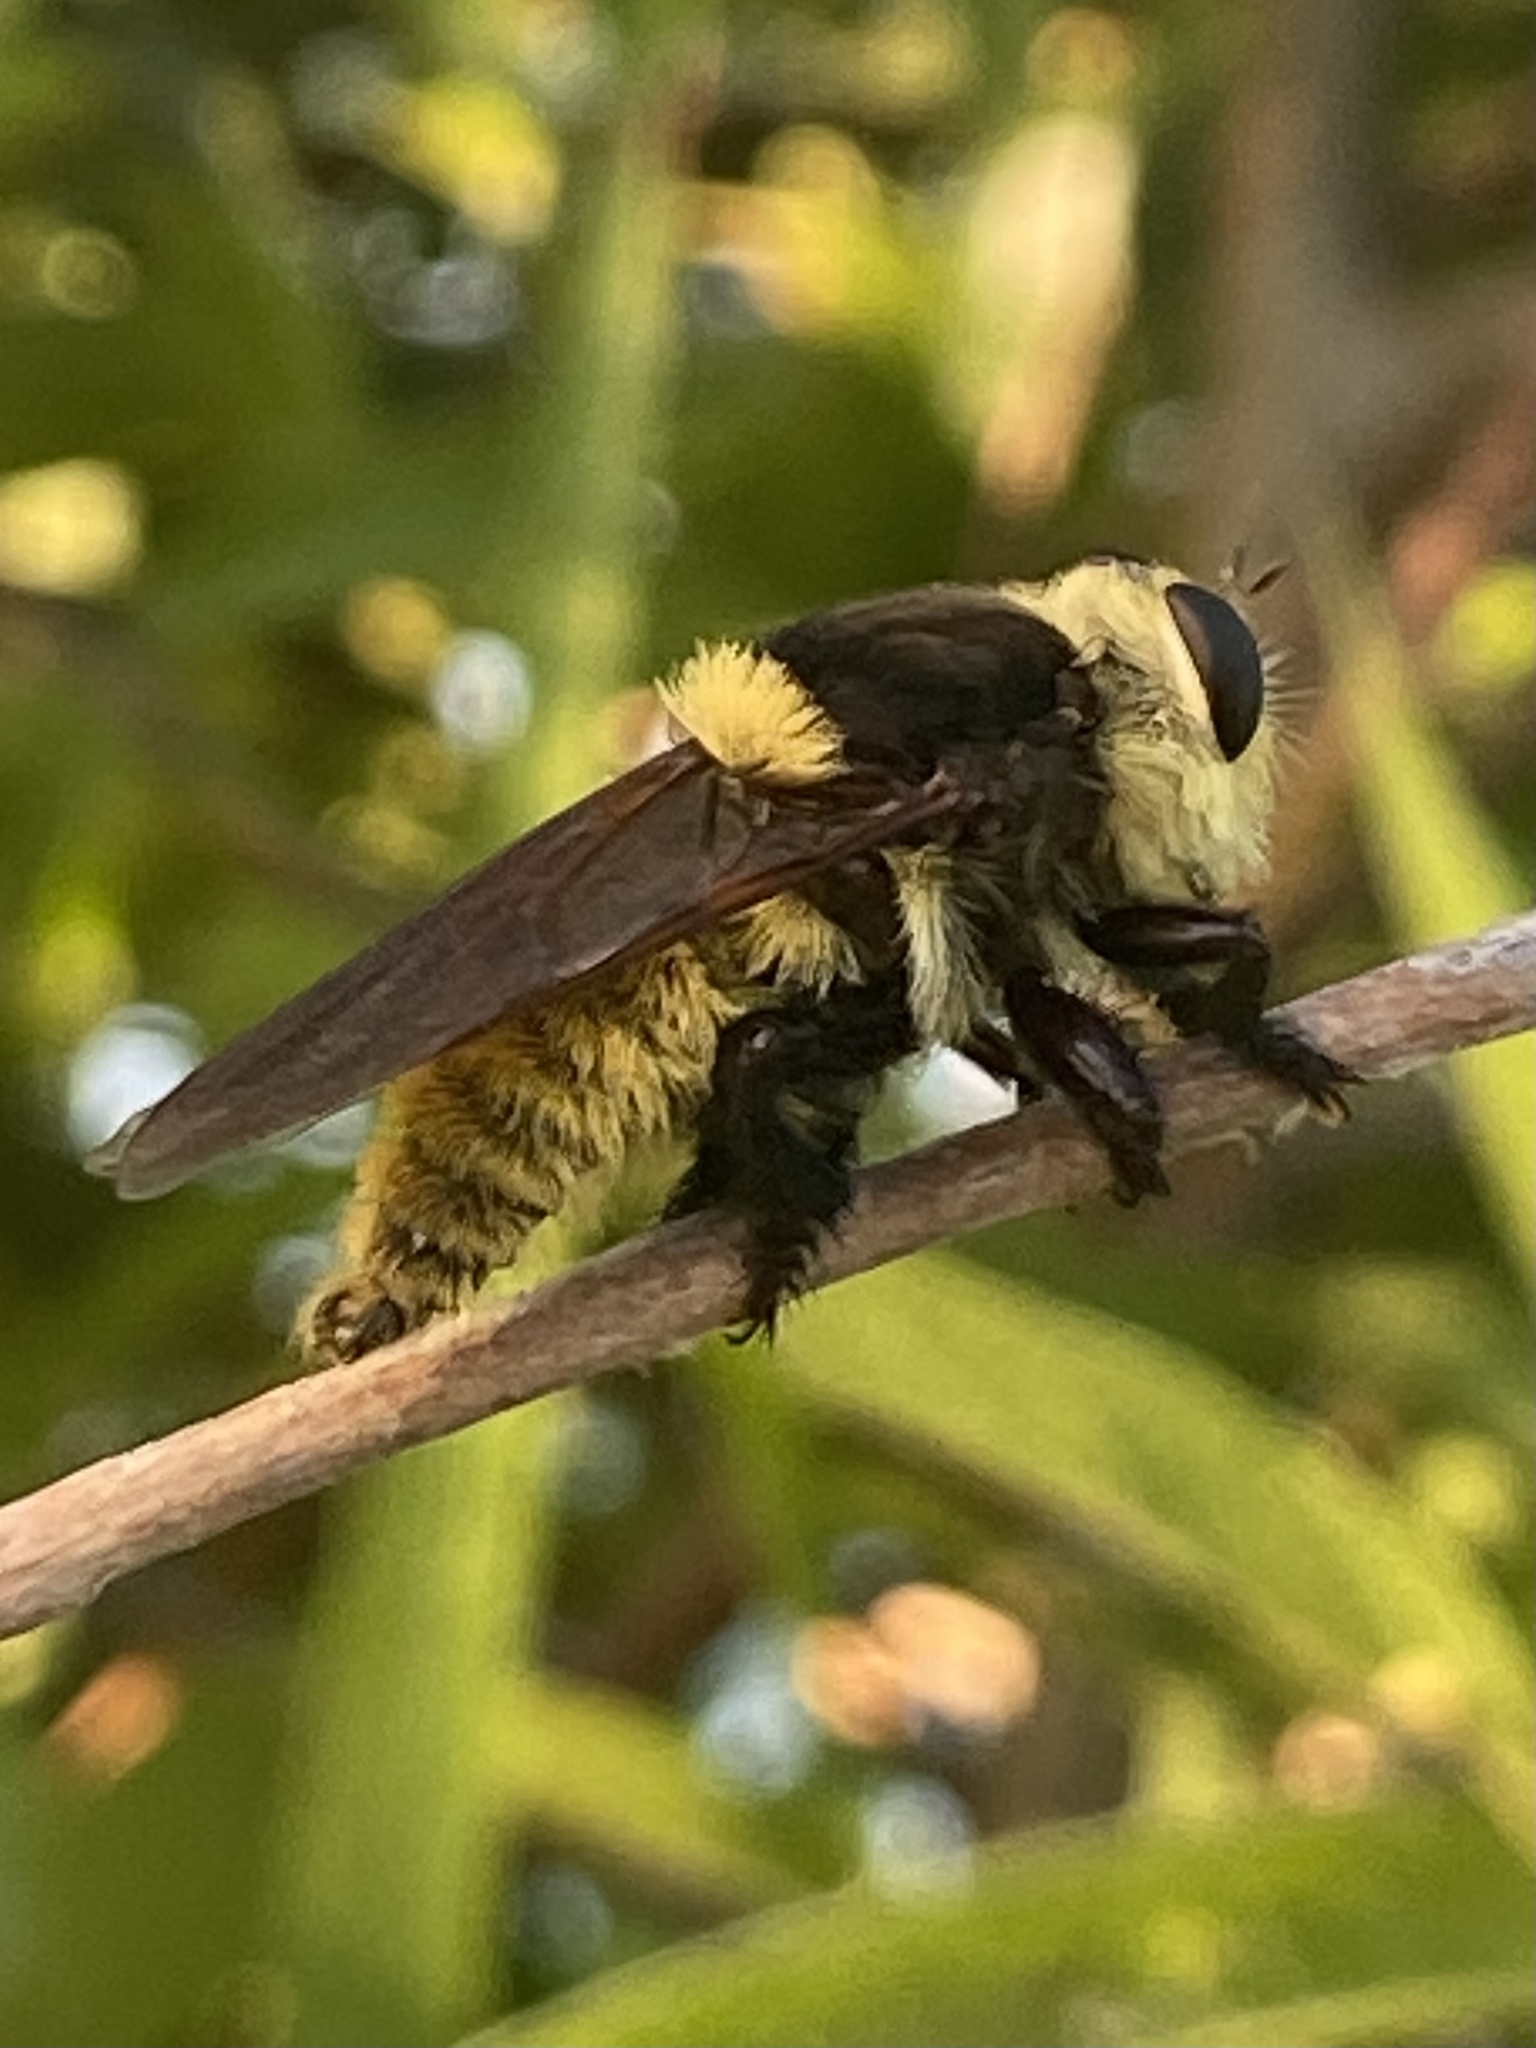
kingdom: Animalia
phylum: Arthropoda
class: Insecta
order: Diptera
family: Asilidae
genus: Mallophora
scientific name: Mallophora fautrix
